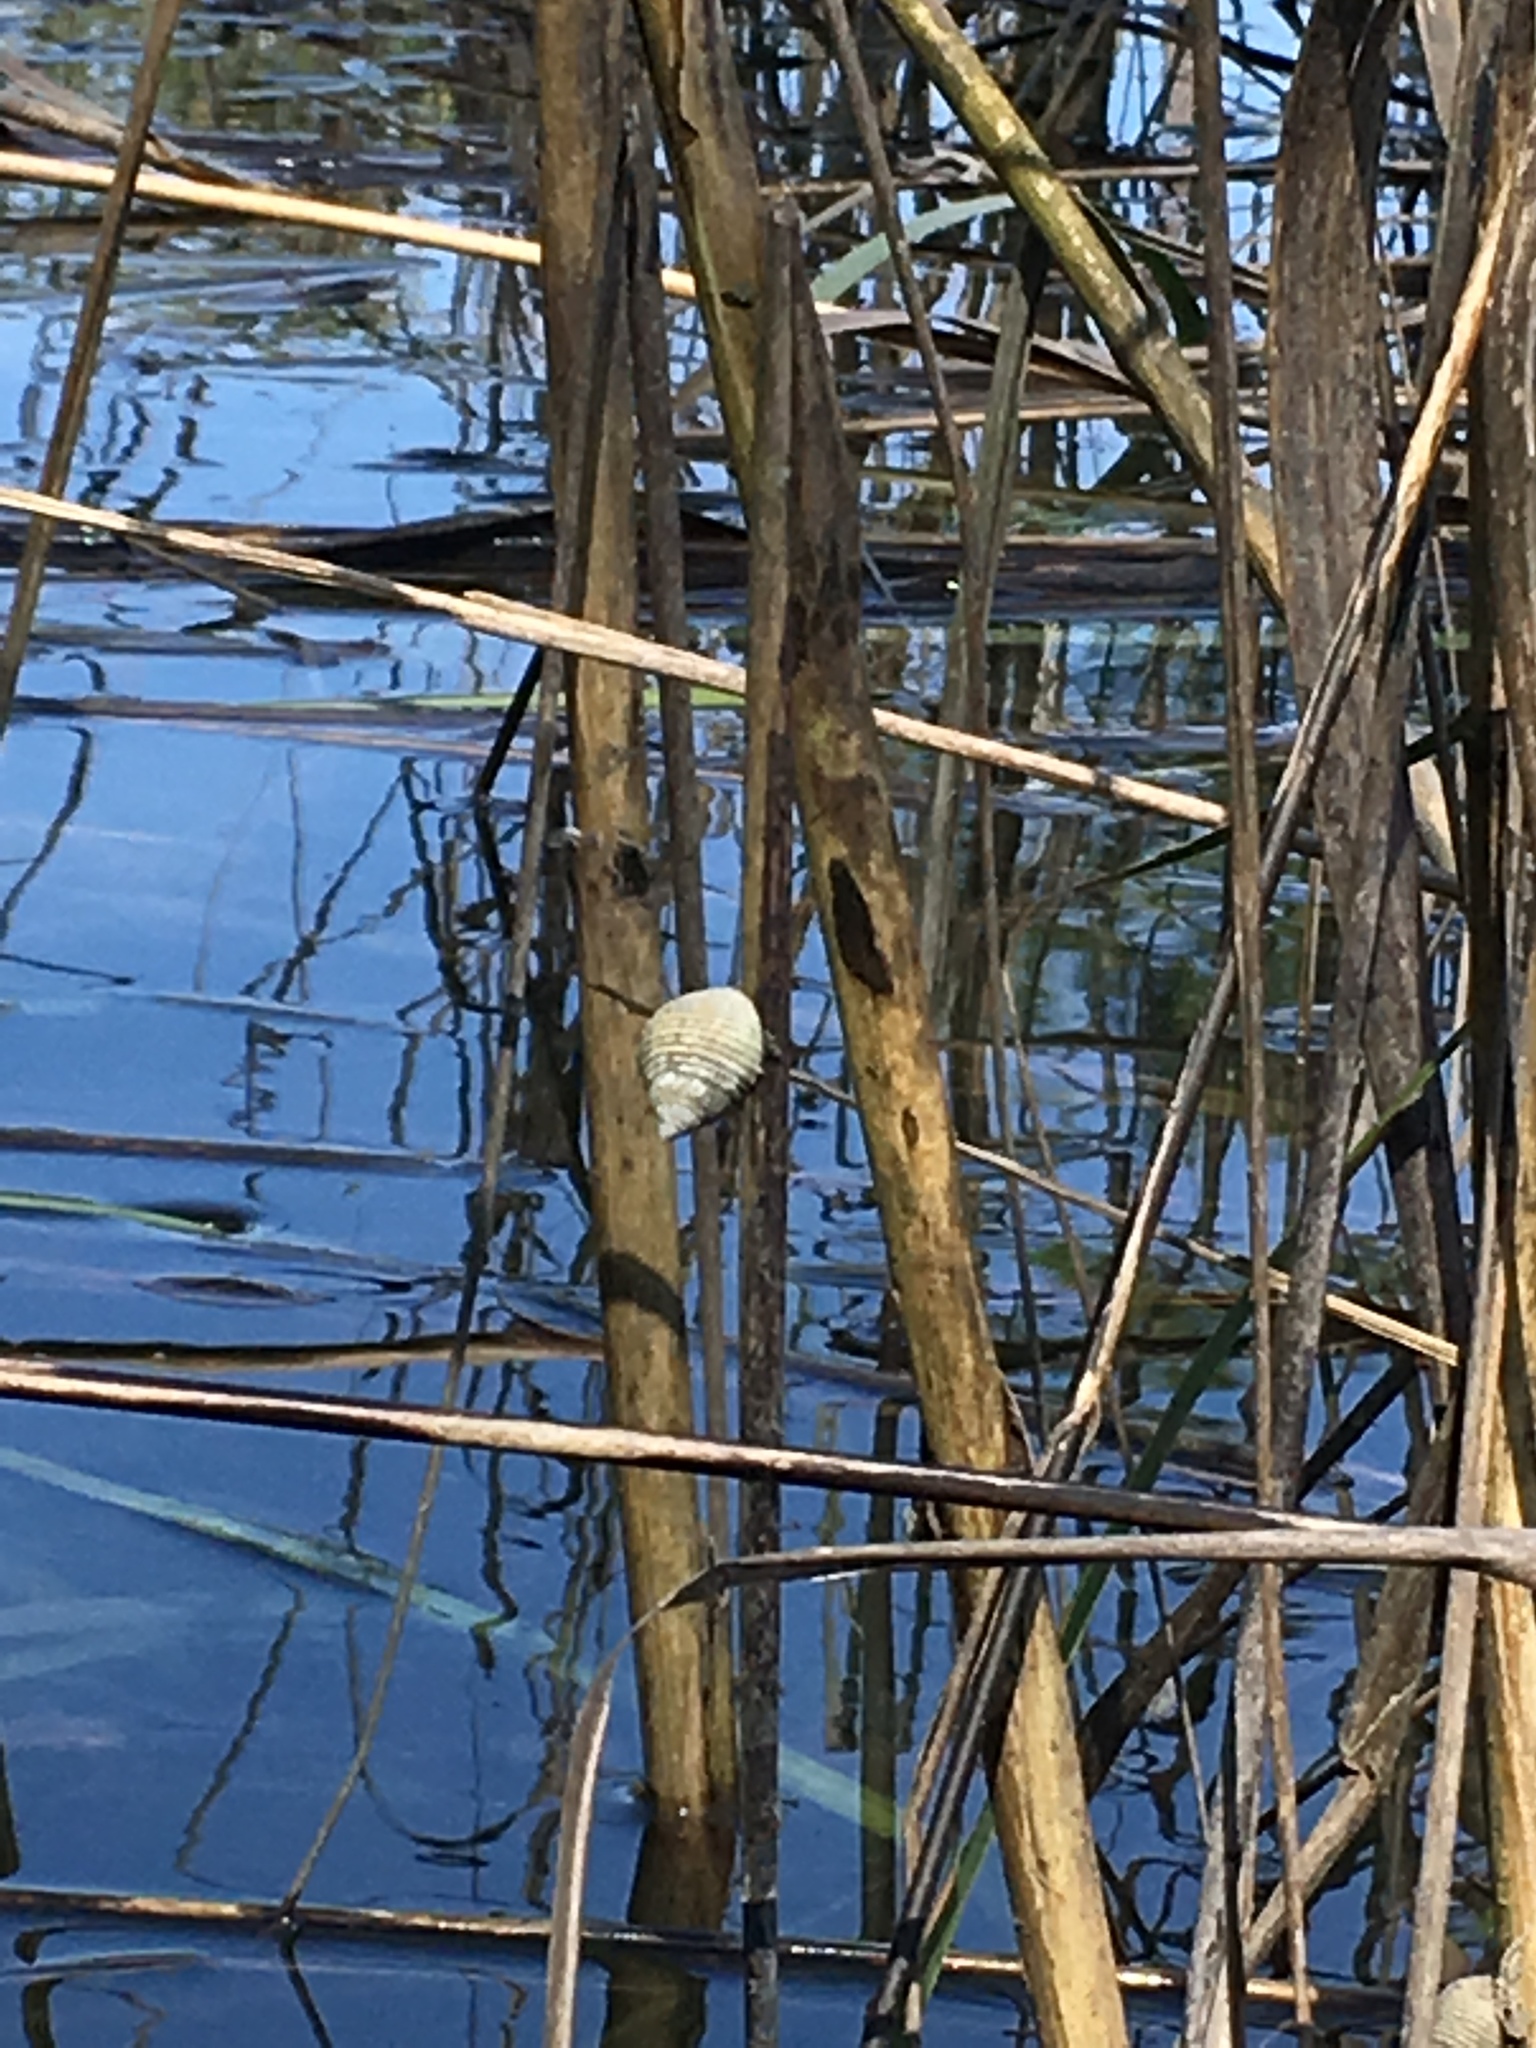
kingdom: Animalia
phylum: Mollusca
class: Gastropoda
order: Littorinimorpha
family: Littorinidae
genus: Littoraria
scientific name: Littoraria irrorata
